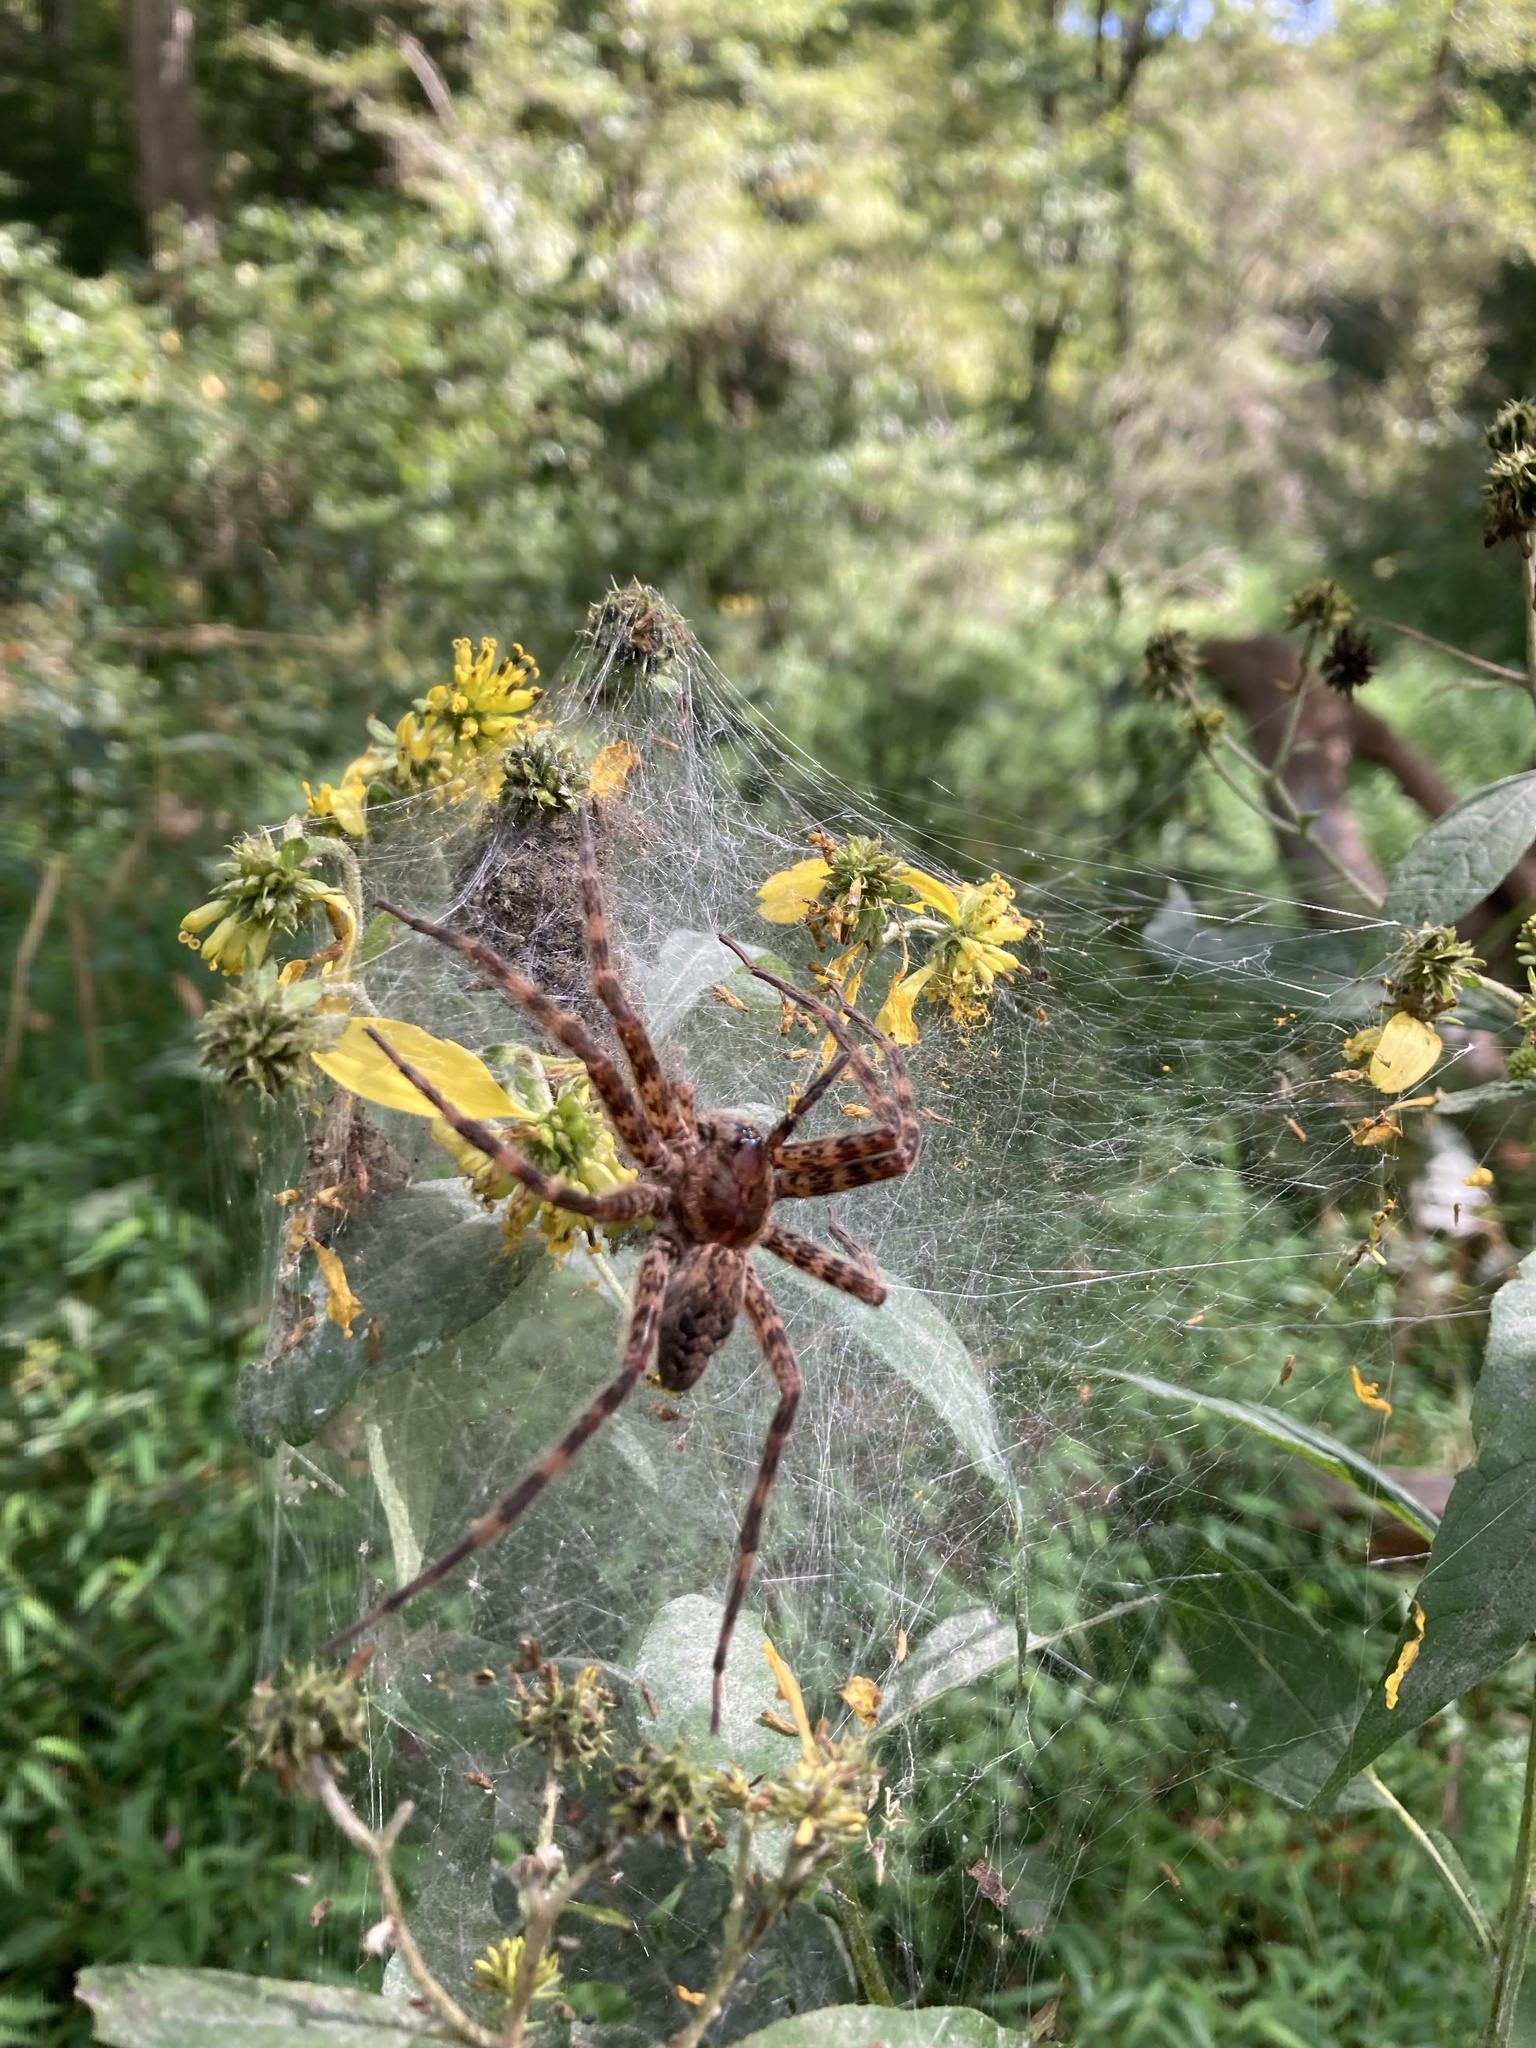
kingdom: Animalia
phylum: Arthropoda
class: Arachnida
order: Araneae
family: Pisauridae
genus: Dolomedes
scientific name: Dolomedes tenebrosus
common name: Dark fishing spider
